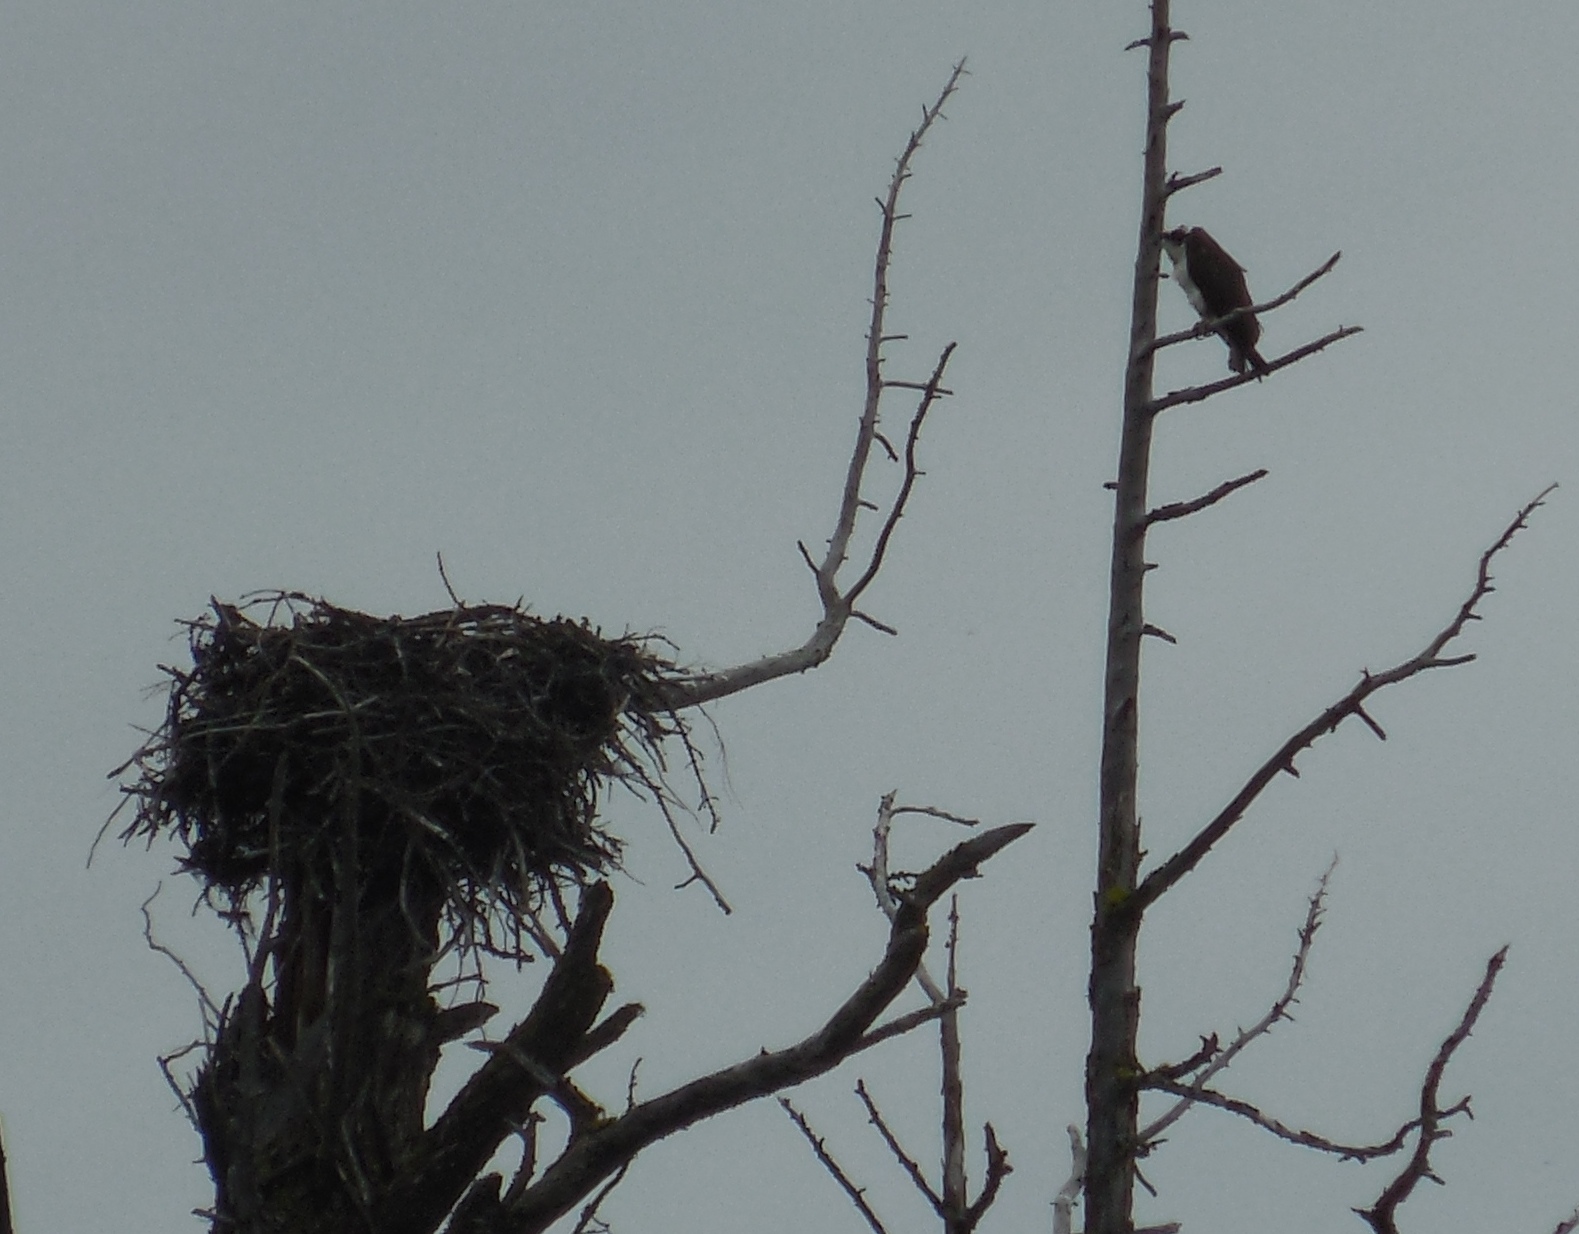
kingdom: Animalia
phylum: Chordata
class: Aves
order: Accipitriformes
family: Pandionidae
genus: Pandion
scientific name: Pandion haliaetus
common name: Osprey
